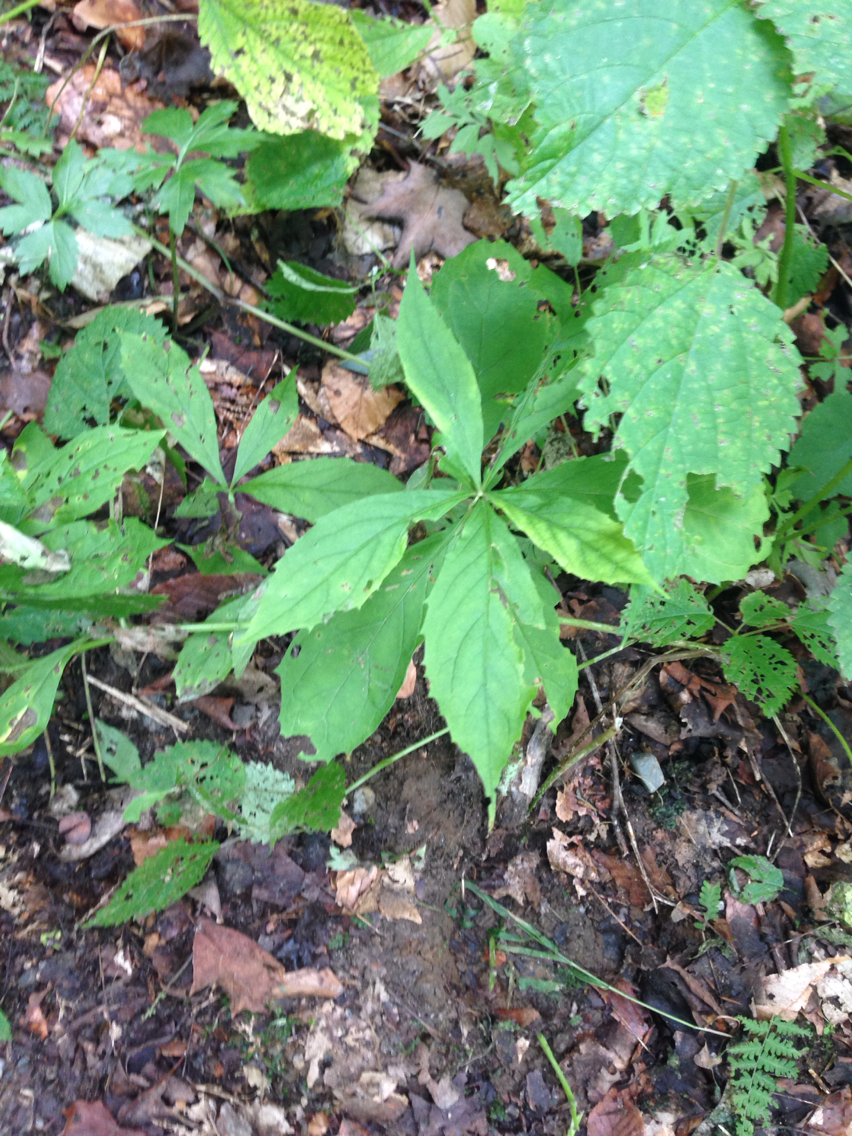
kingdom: Plantae
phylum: Tracheophyta
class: Magnoliopsida
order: Asterales
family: Asteraceae
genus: Oclemena
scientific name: Oclemena acuminata
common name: Mountain aster
